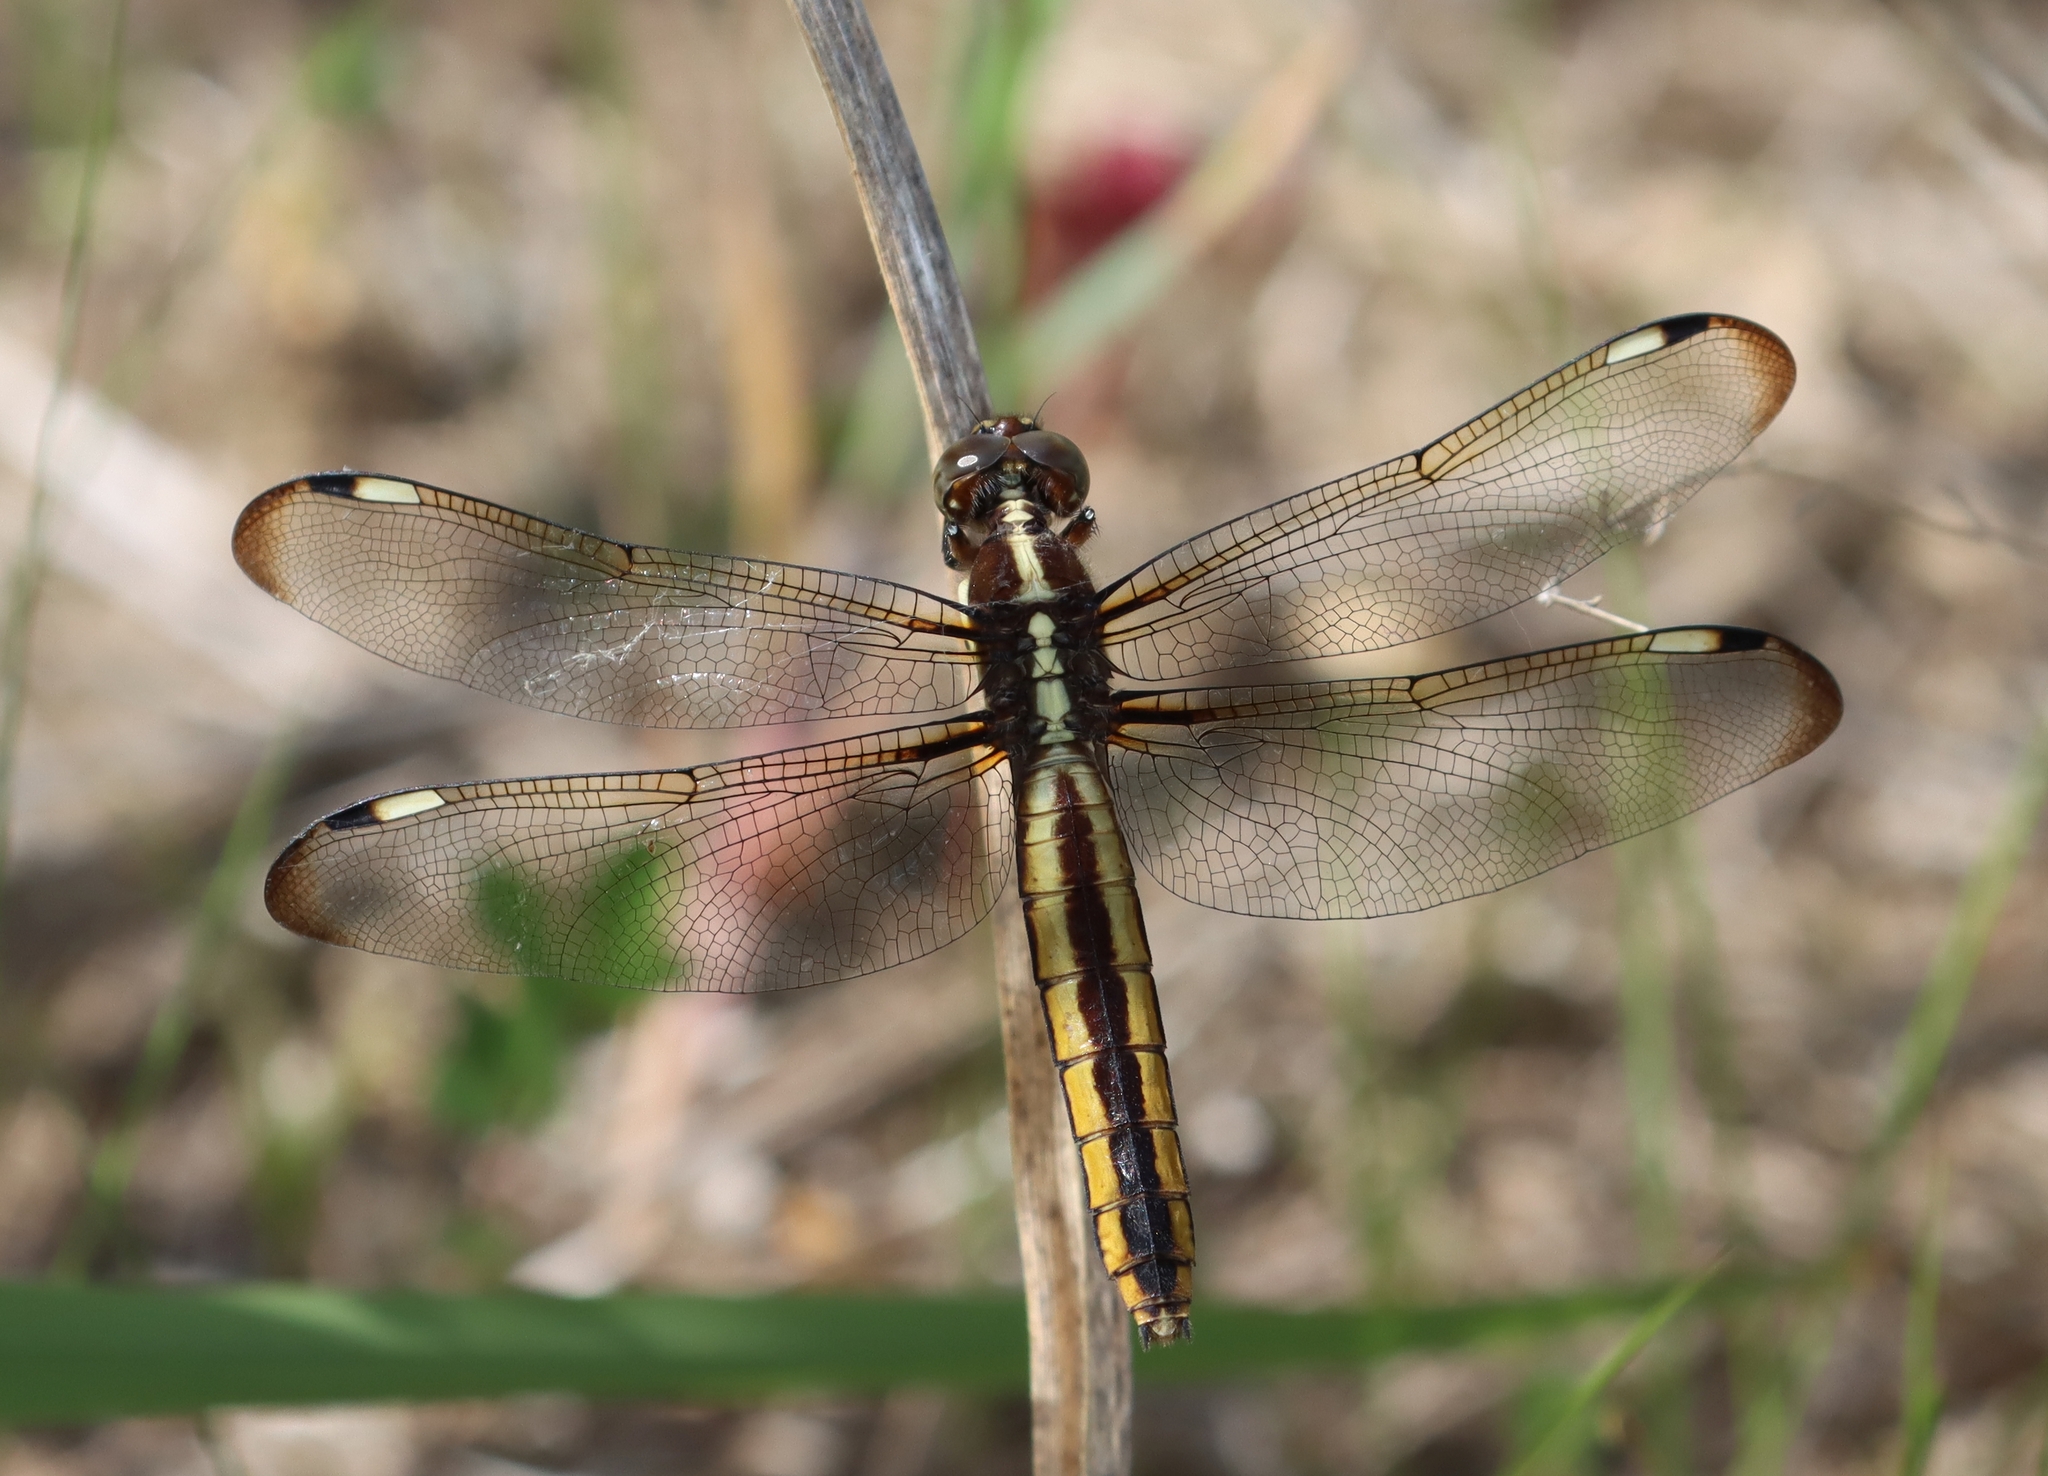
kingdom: Animalia
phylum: Arthropoda
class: Insecta
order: Odonata
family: Libellulidae
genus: Libellula
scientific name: Libellula cyanea
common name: Spangled skimmer
